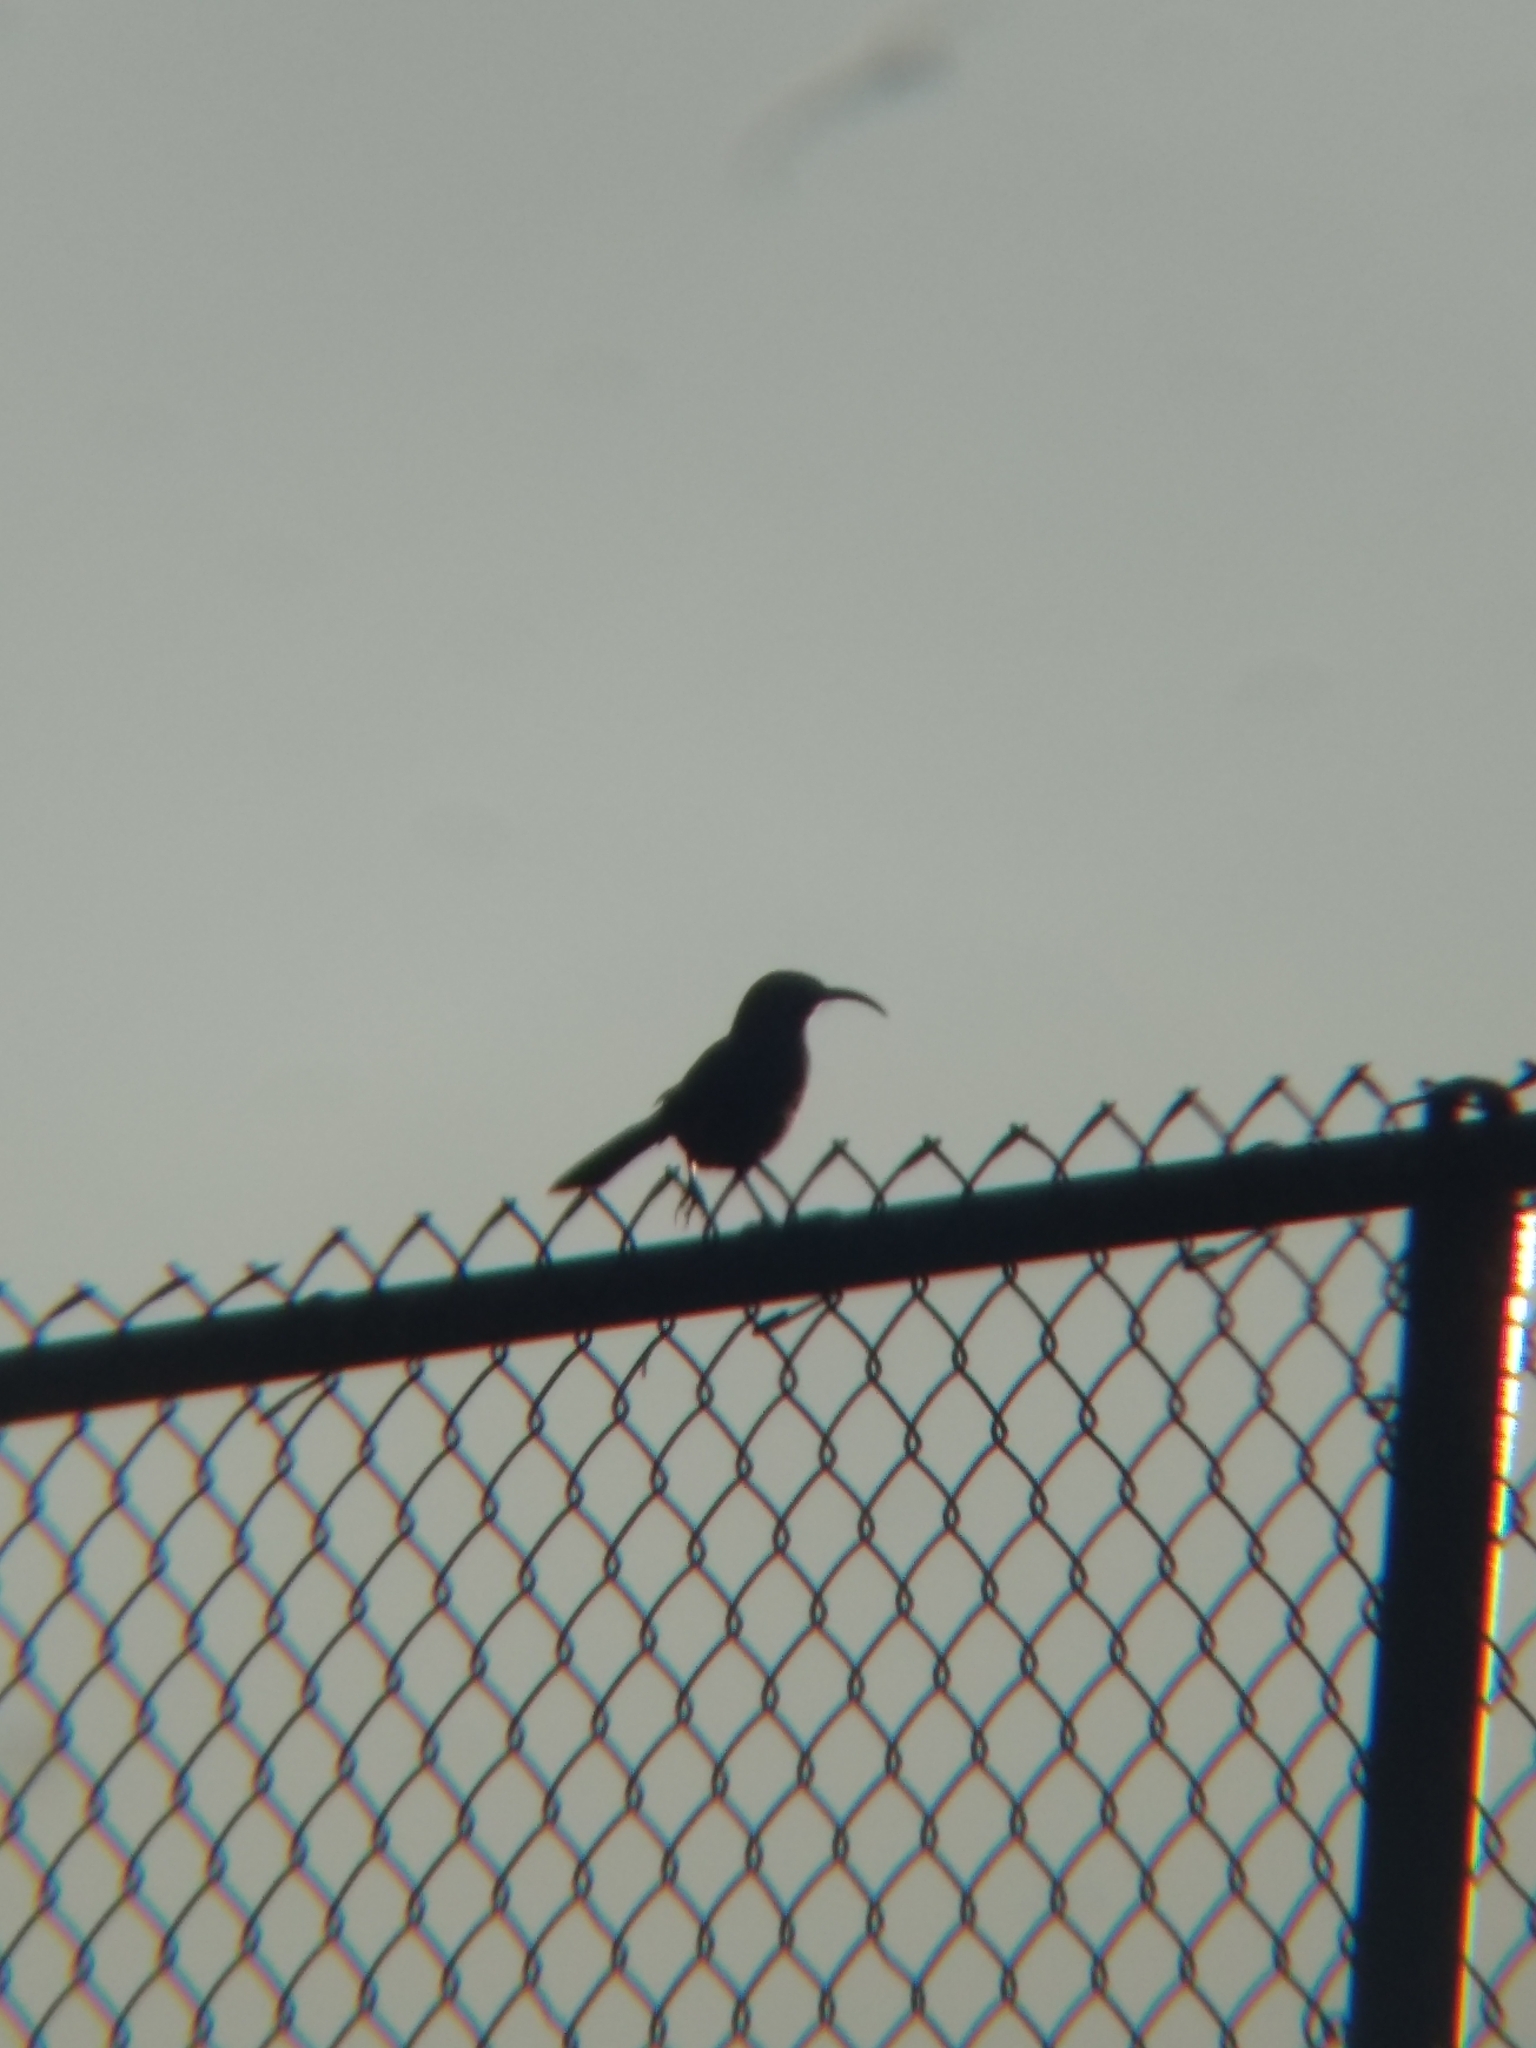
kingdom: Animalia
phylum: Chordata
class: Aves
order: Passeriformes
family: Mimidae
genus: Toxostoma
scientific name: Toxostoma redivivum
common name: California thrasher
